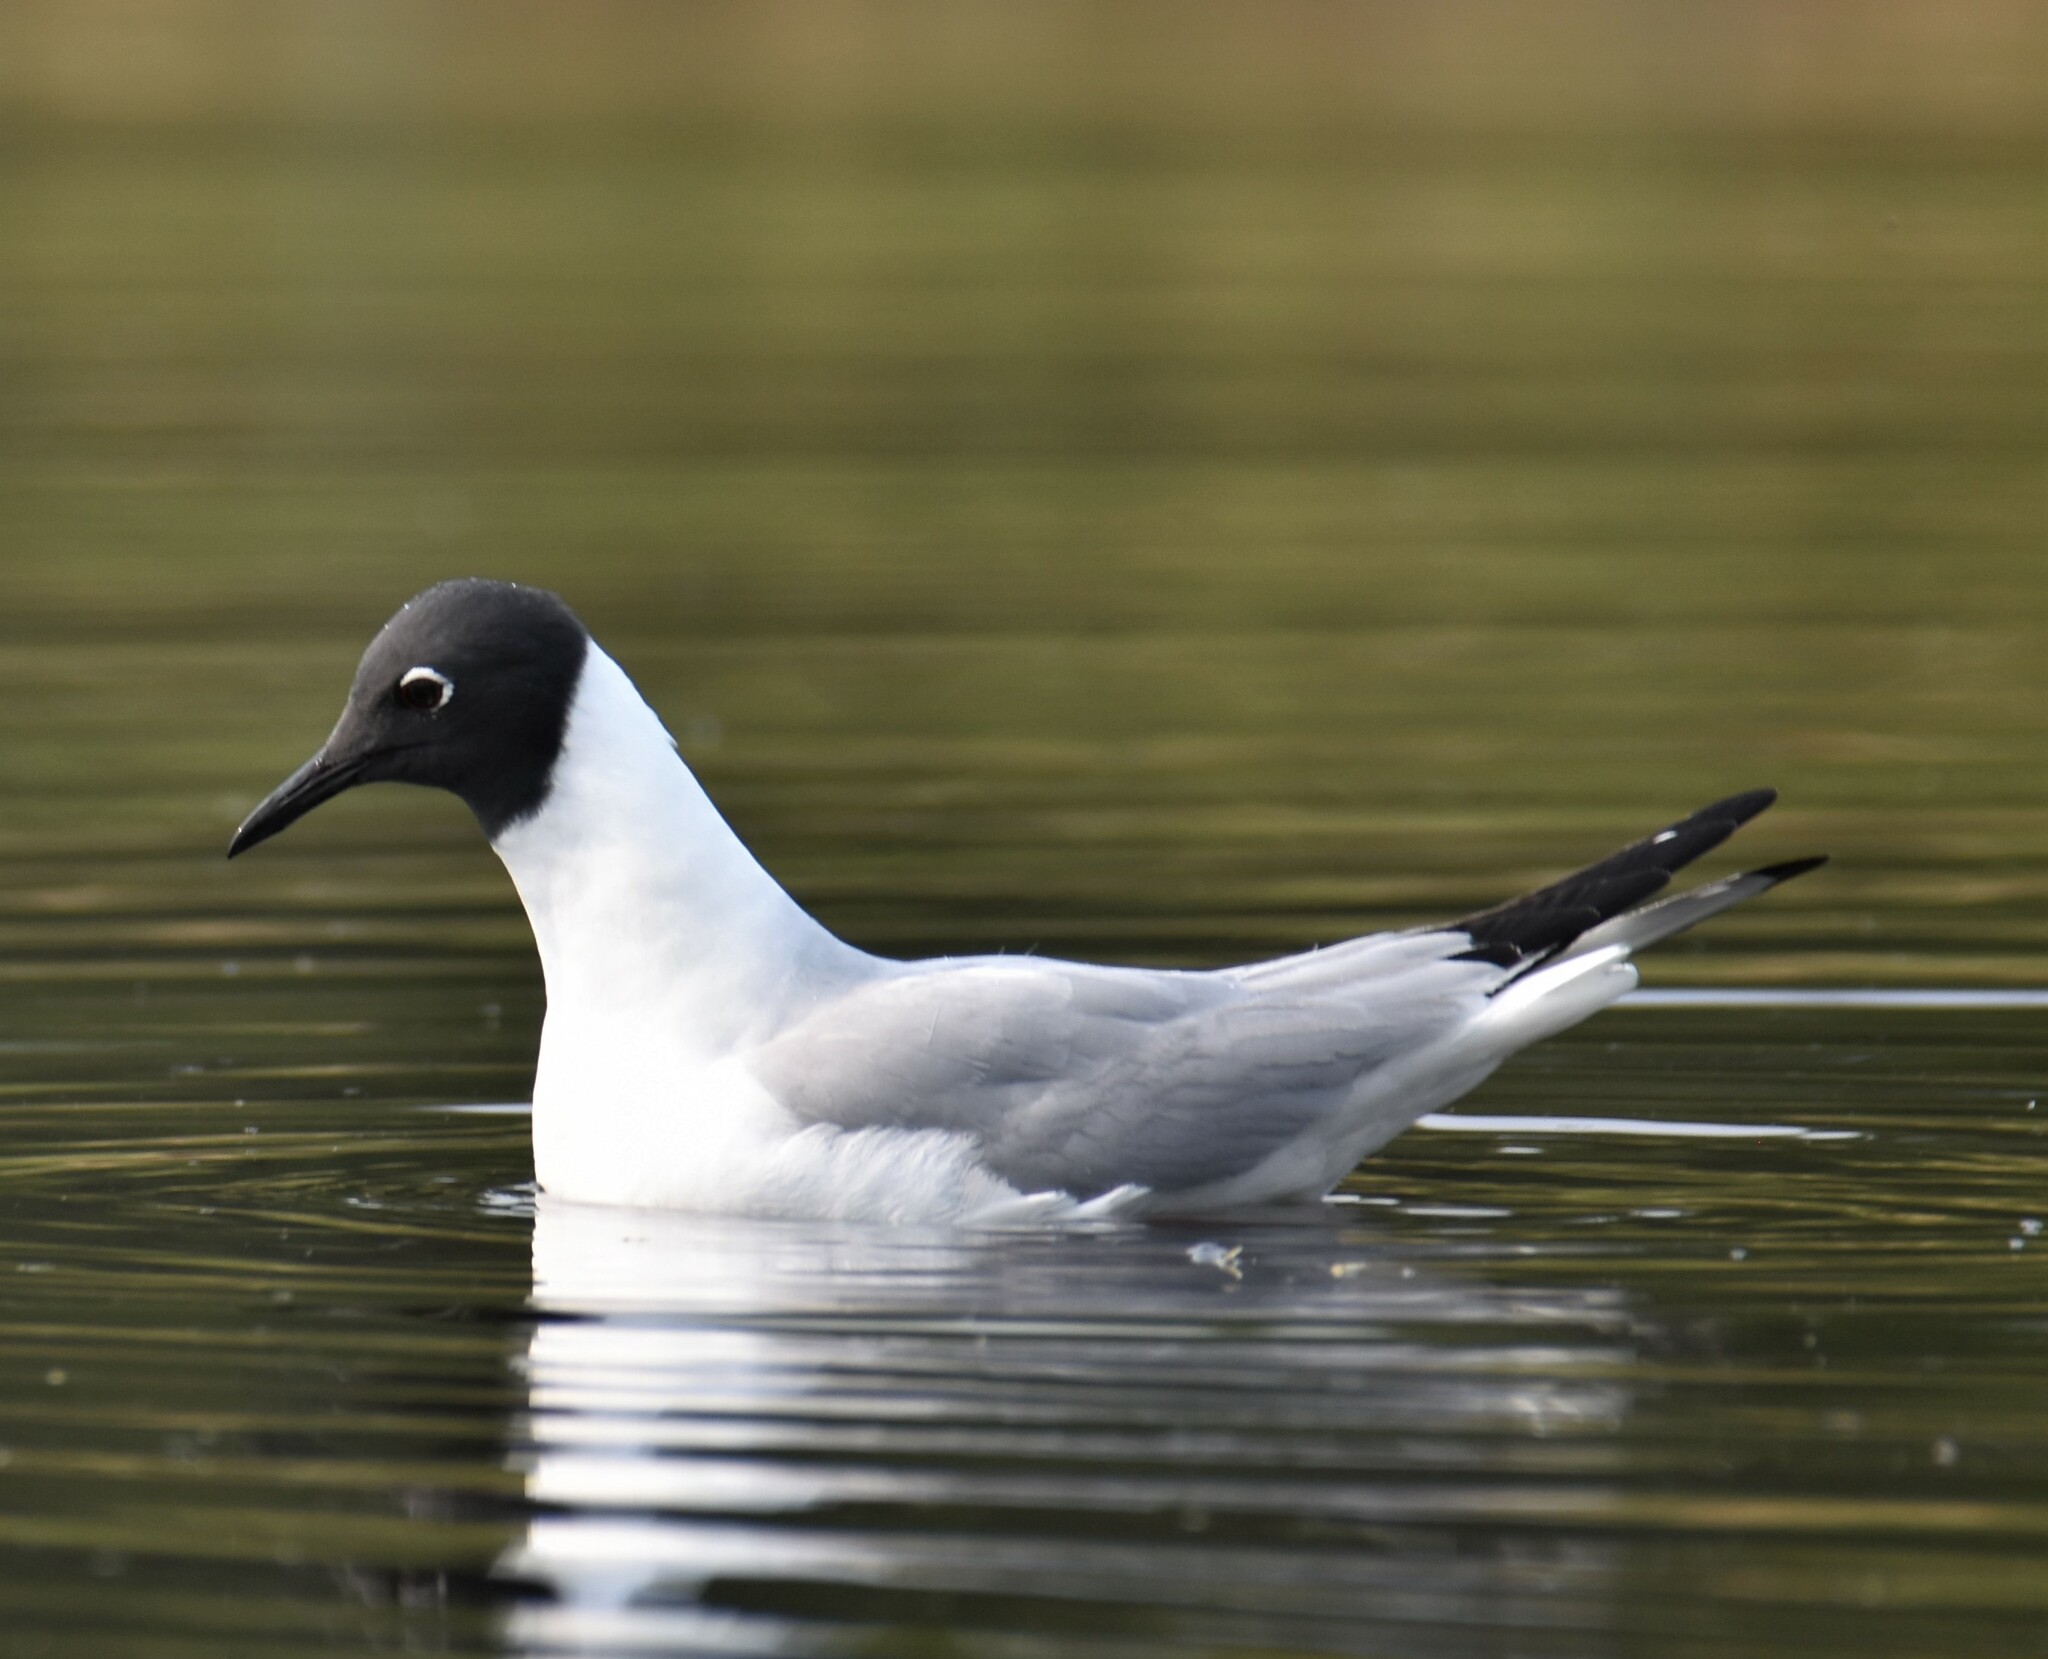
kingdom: Animalia
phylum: Chordata
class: Aves
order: Charadriiformes
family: Laridae
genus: Chroicocephalus
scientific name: Chroicocephalus philadelphia
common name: Bonaparte's gull
